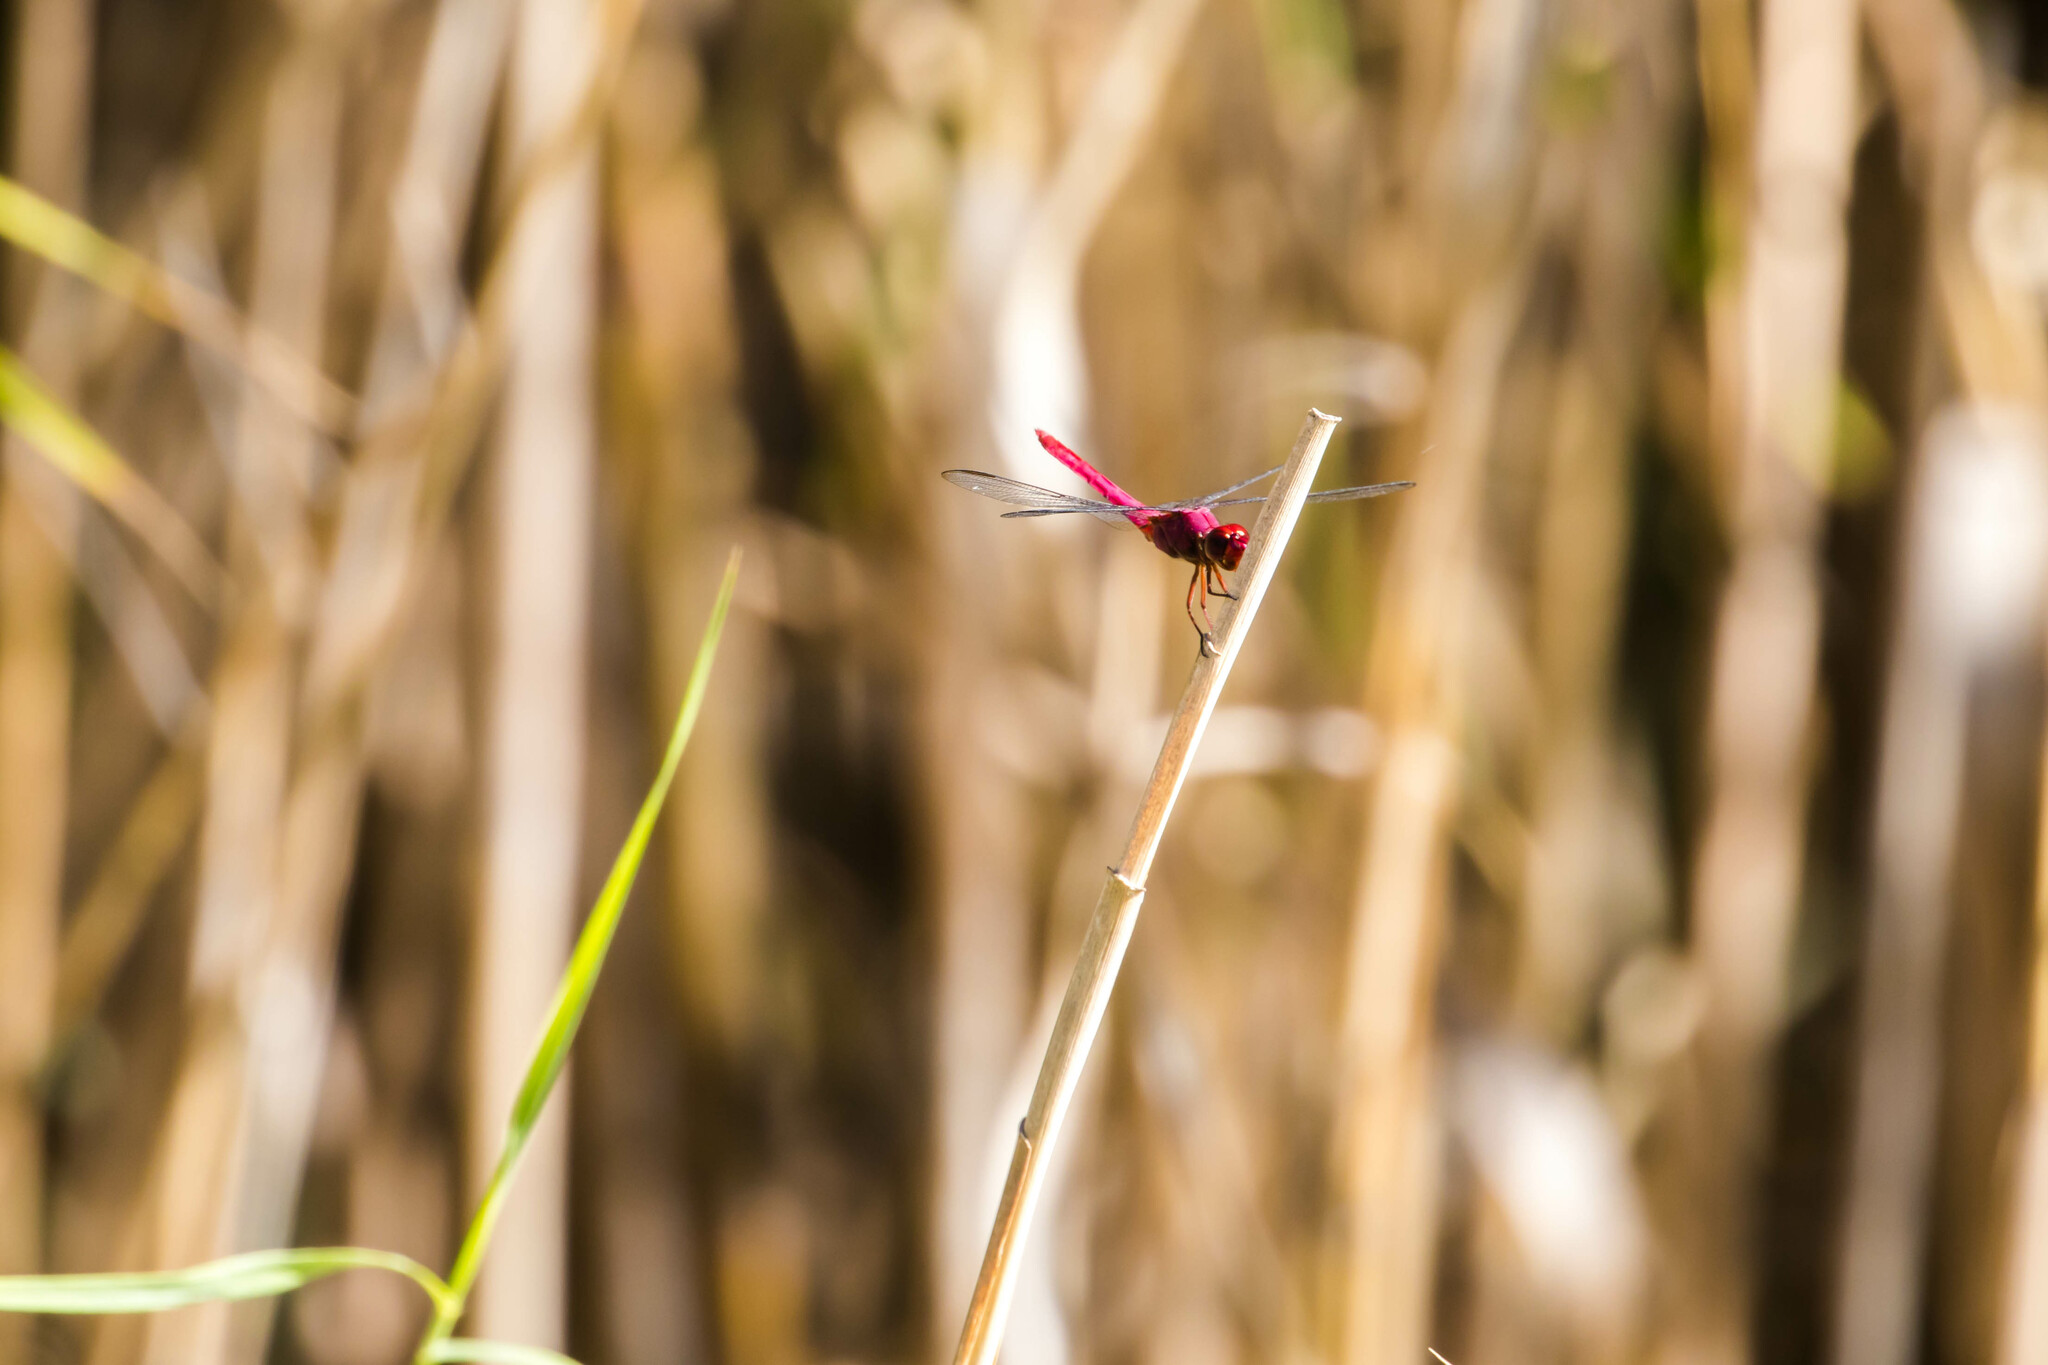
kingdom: Animalia
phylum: Arthropoda
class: Insecta
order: Odonata
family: Libellulidae
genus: Orthemis
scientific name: Orthemis discolor
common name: Carmine skimmer
